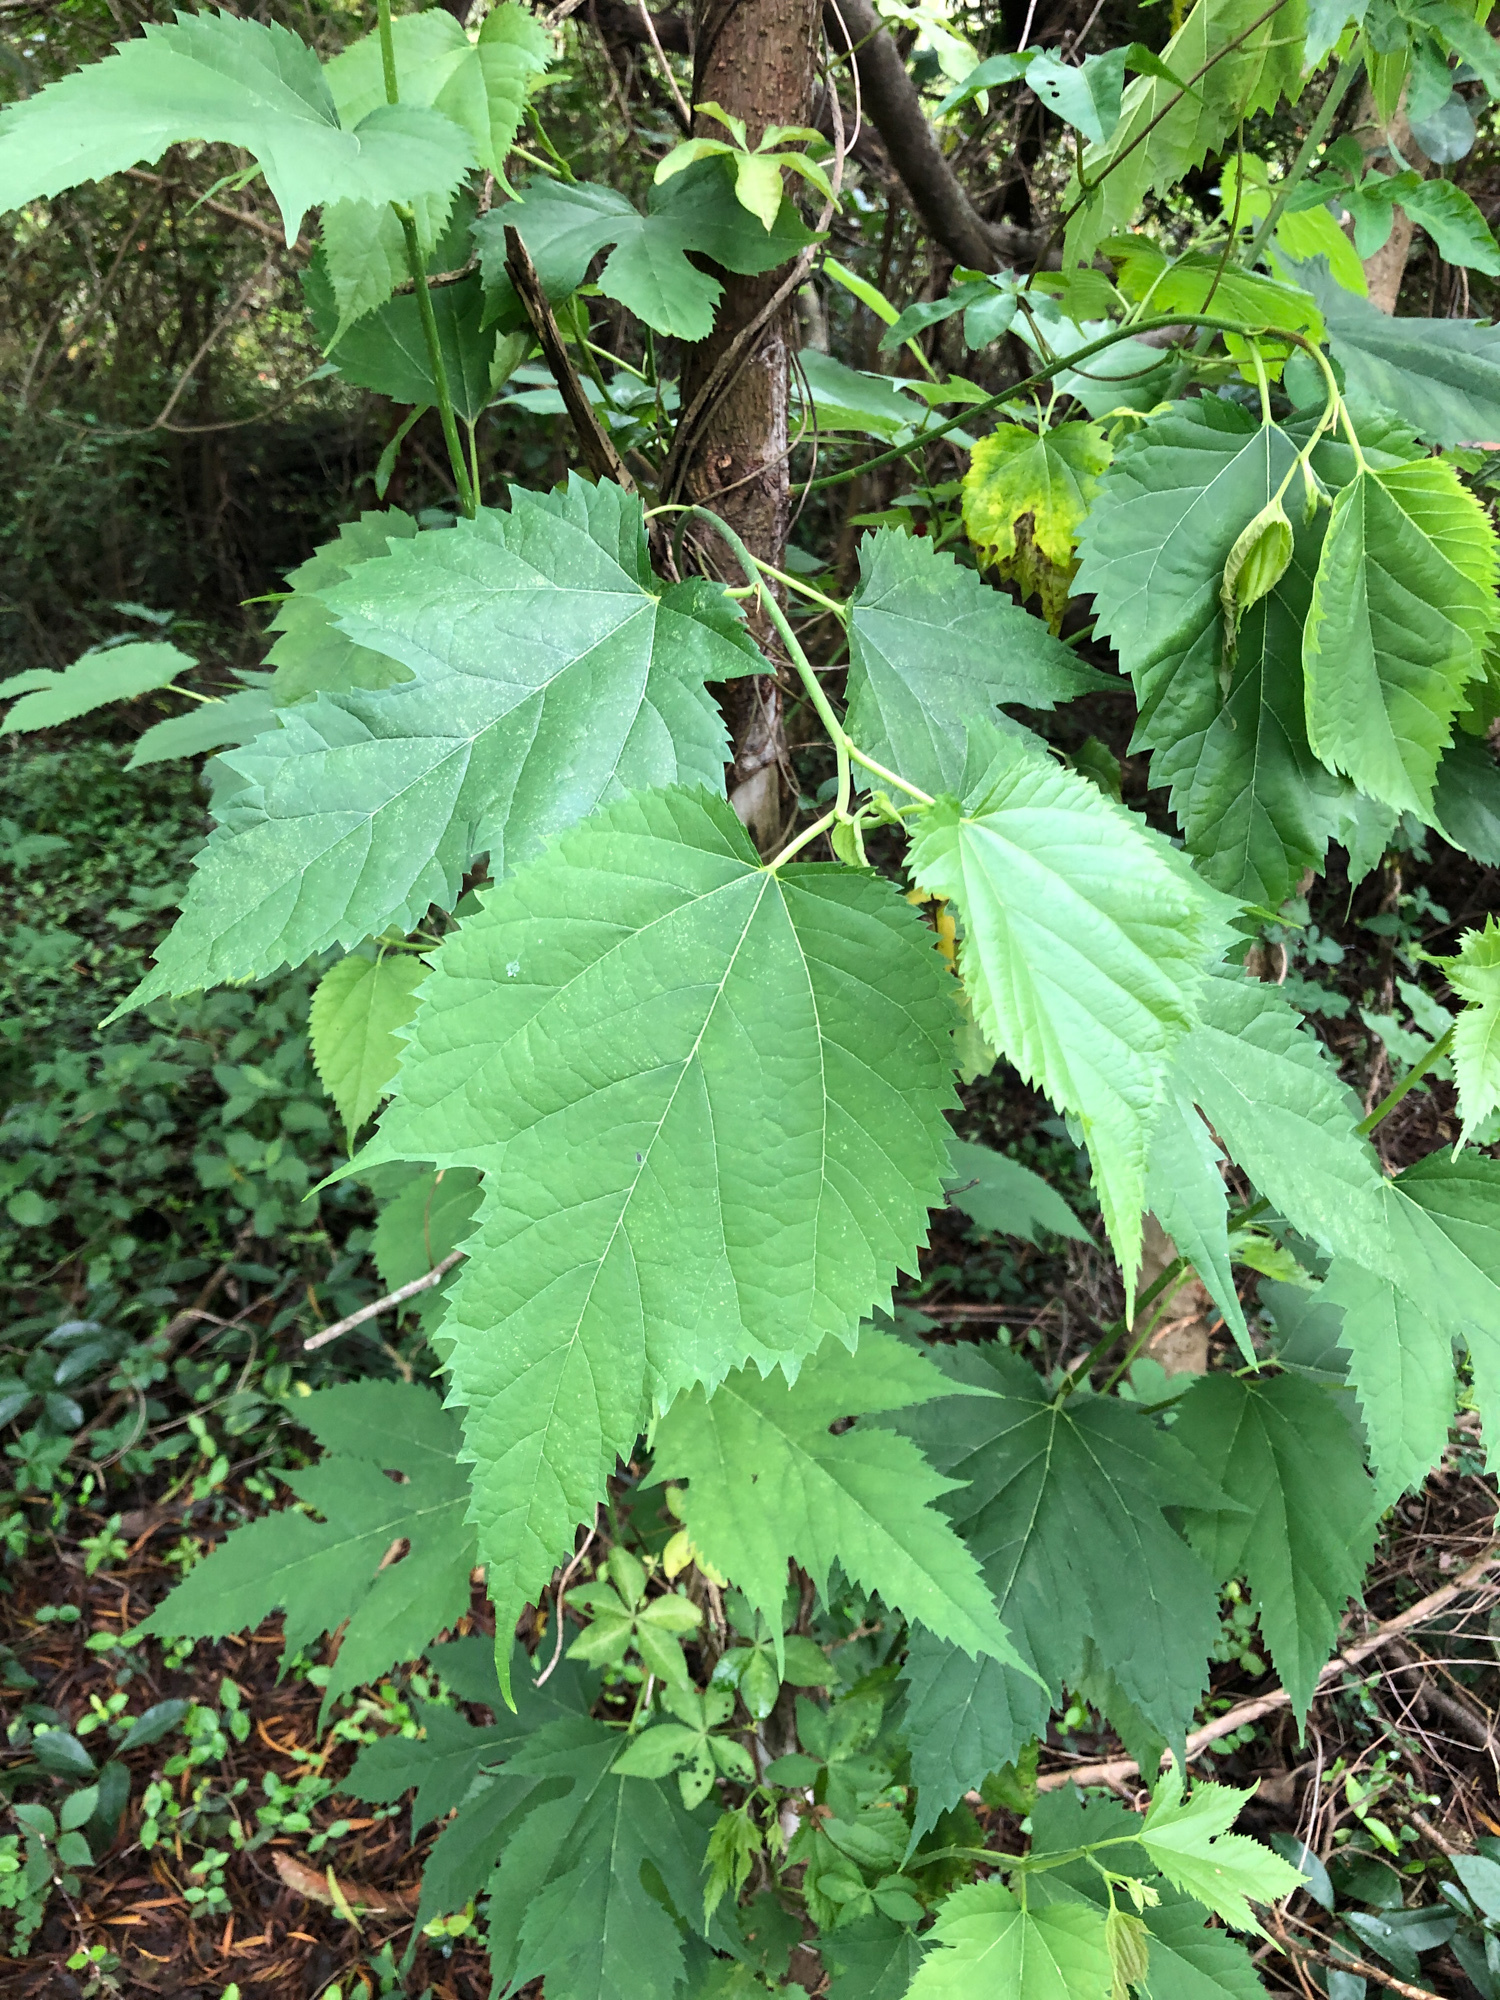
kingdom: Plantae
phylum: Tracheophyta
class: Magnoliopsida
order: Rosales
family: Moraceae
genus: Morus
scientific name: Morus indica
